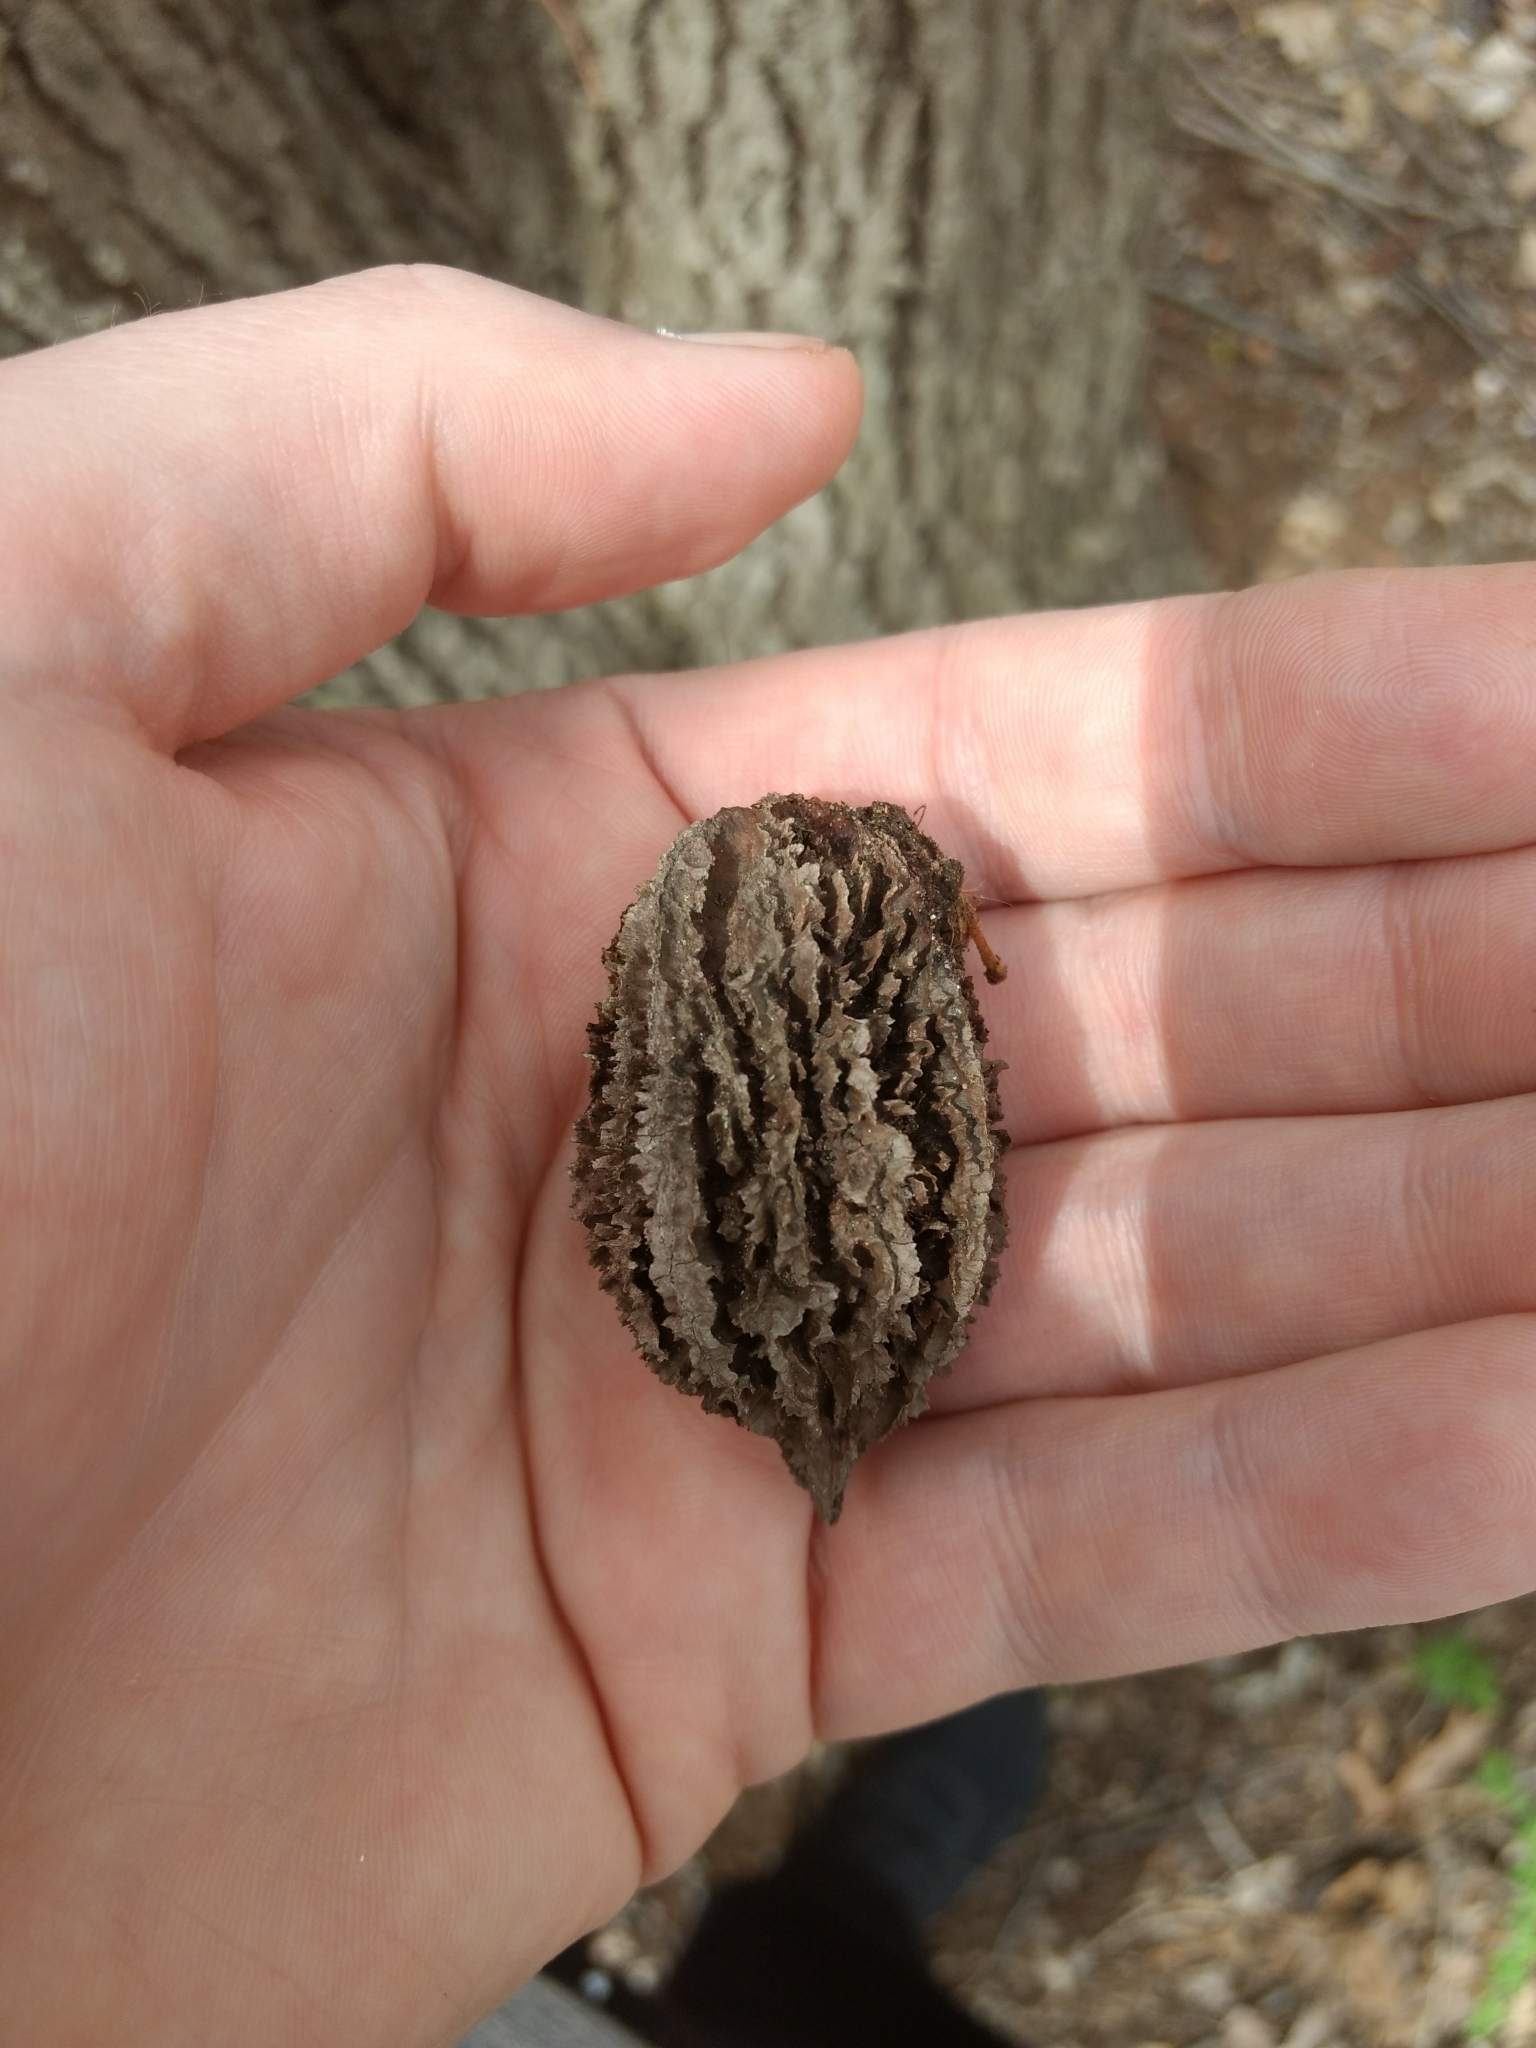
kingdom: Plantae
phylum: Tracheophyta
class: Magnoliopsida
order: Fagales
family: Juglandaceae
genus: Juglans
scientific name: Juglans cinerea
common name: Butternut
